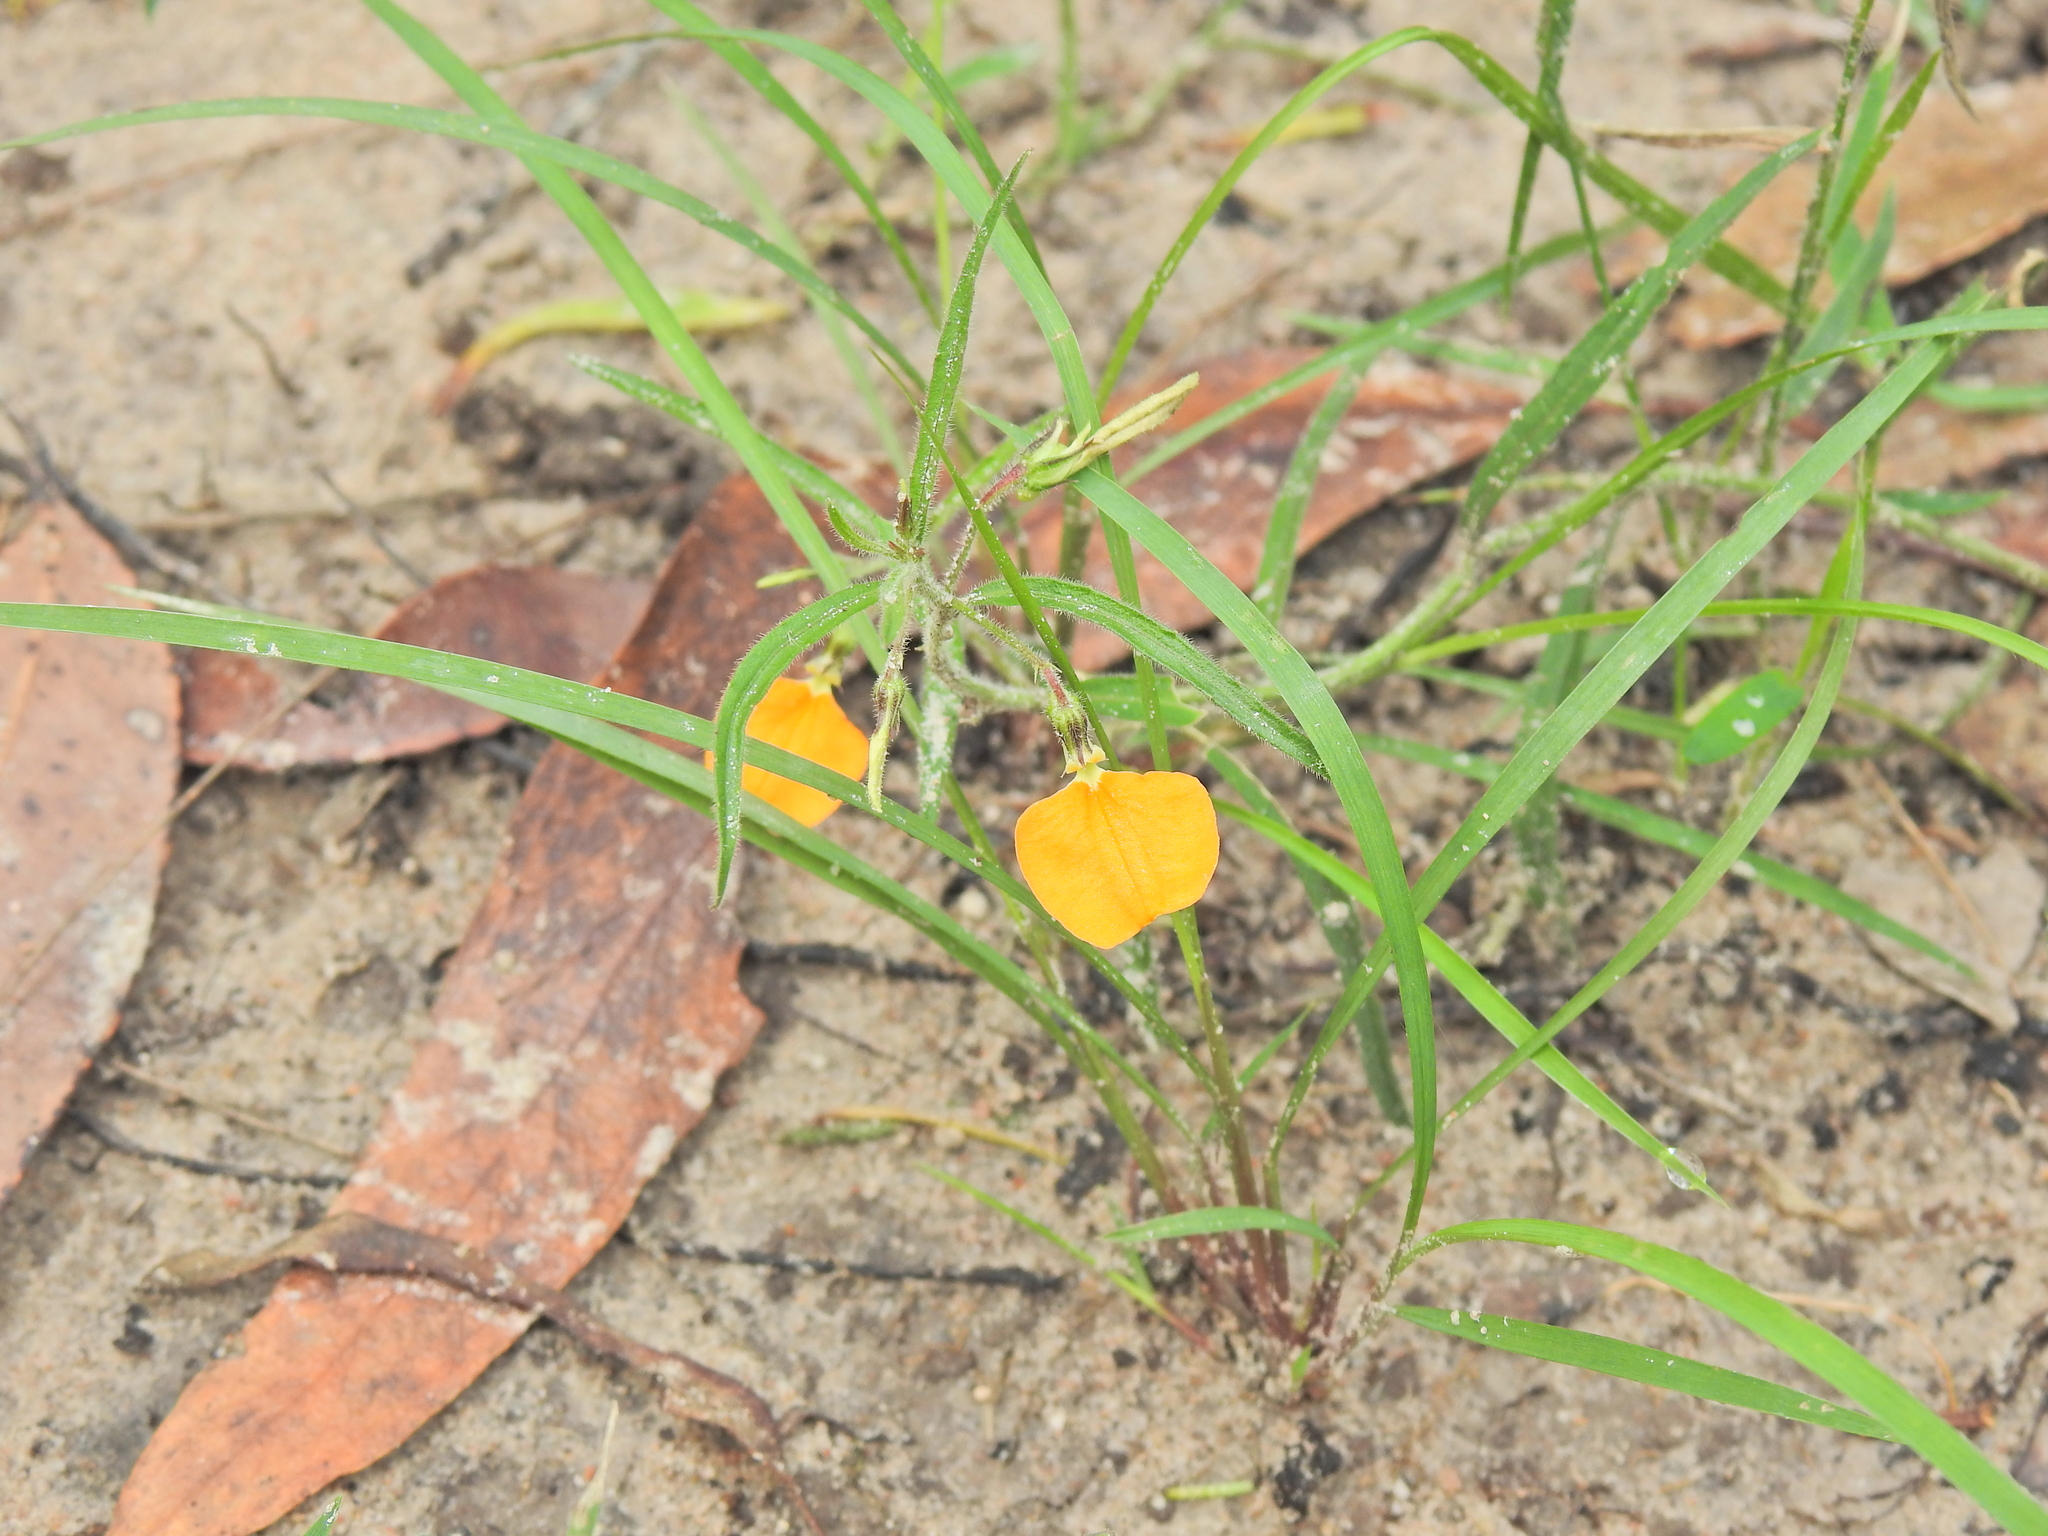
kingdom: Plantae
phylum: Tracheophyta
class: Magnoliopsida
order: Malpighiales
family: Violaceae
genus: Pigea
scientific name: Pigea stellarioides
